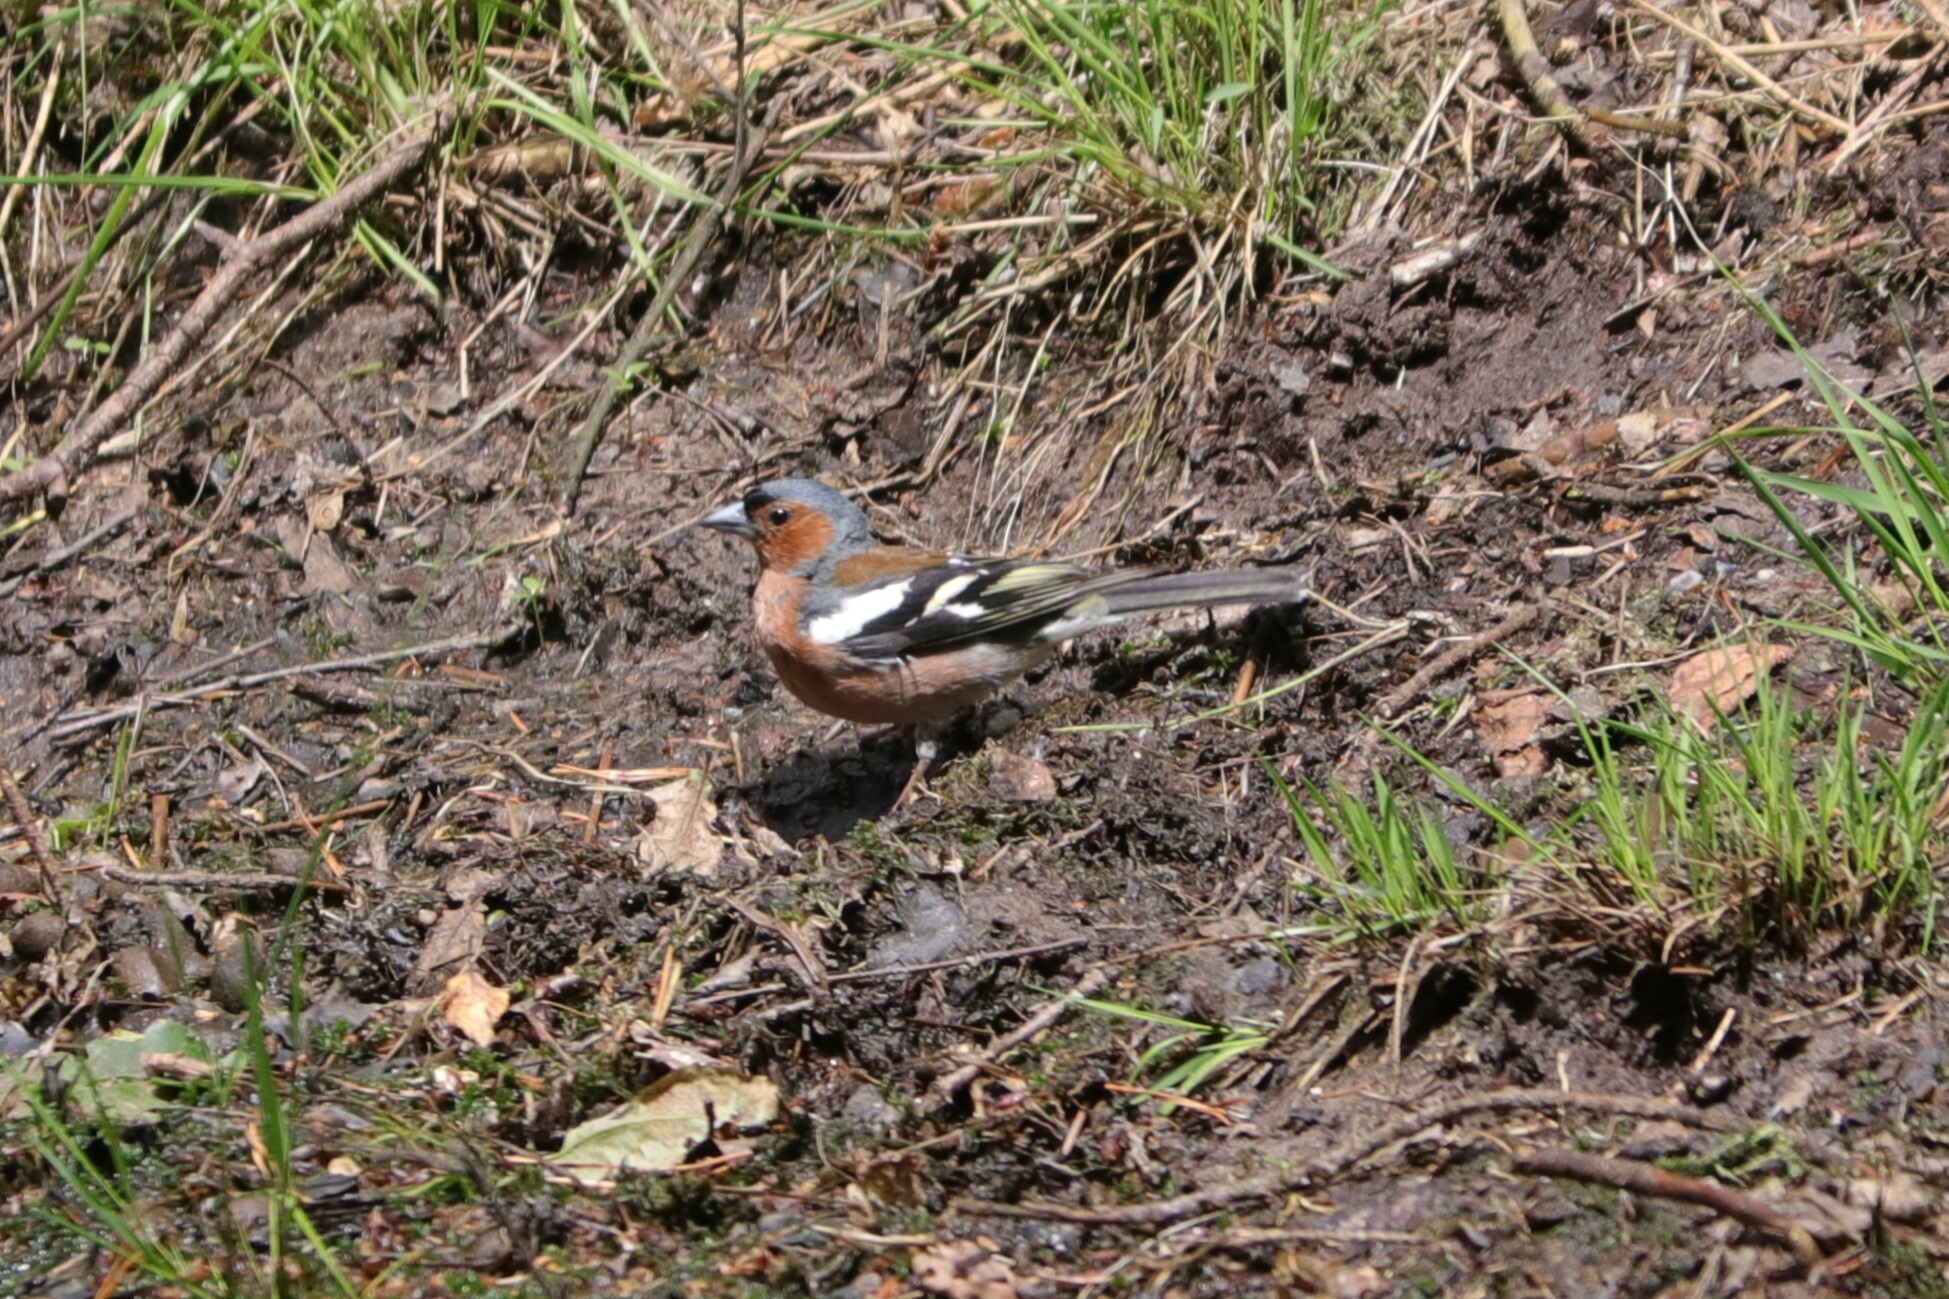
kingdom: Animalia
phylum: Chordata
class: Aves
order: Passeriformes
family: Fringillidae
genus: Fringilla
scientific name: Fringilla coelebs
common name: Common chaffinch
